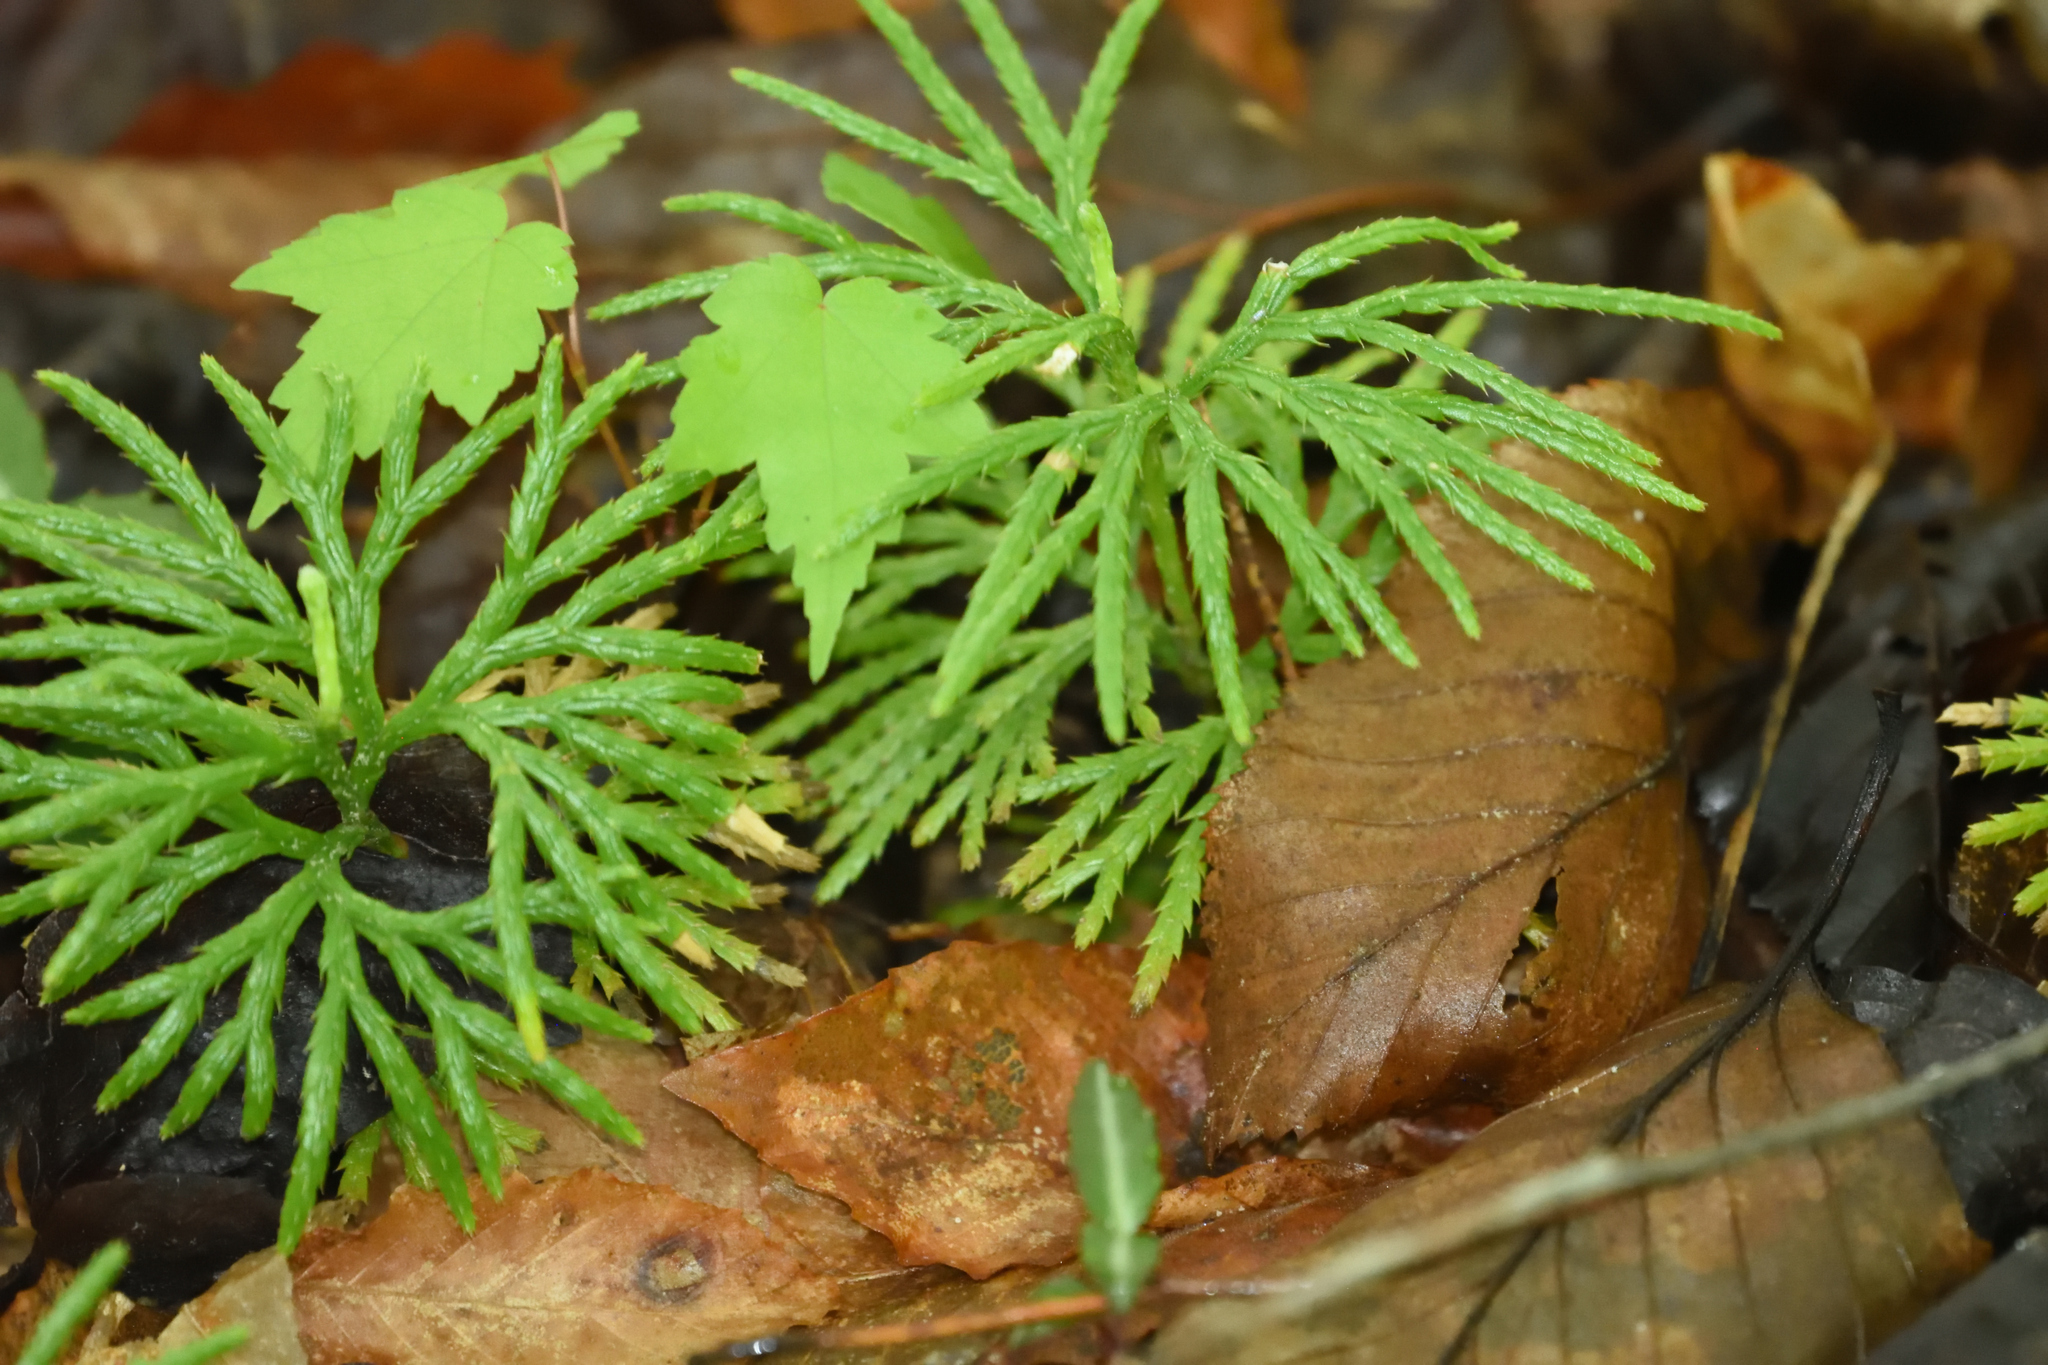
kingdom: Plantae
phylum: Tracheophyta
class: Lycopodiopsida
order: Lycopodiales
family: Lycopodiaceae
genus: Diphasiastrum
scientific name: Diphasiastrum digitatum
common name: Southern running-pine
